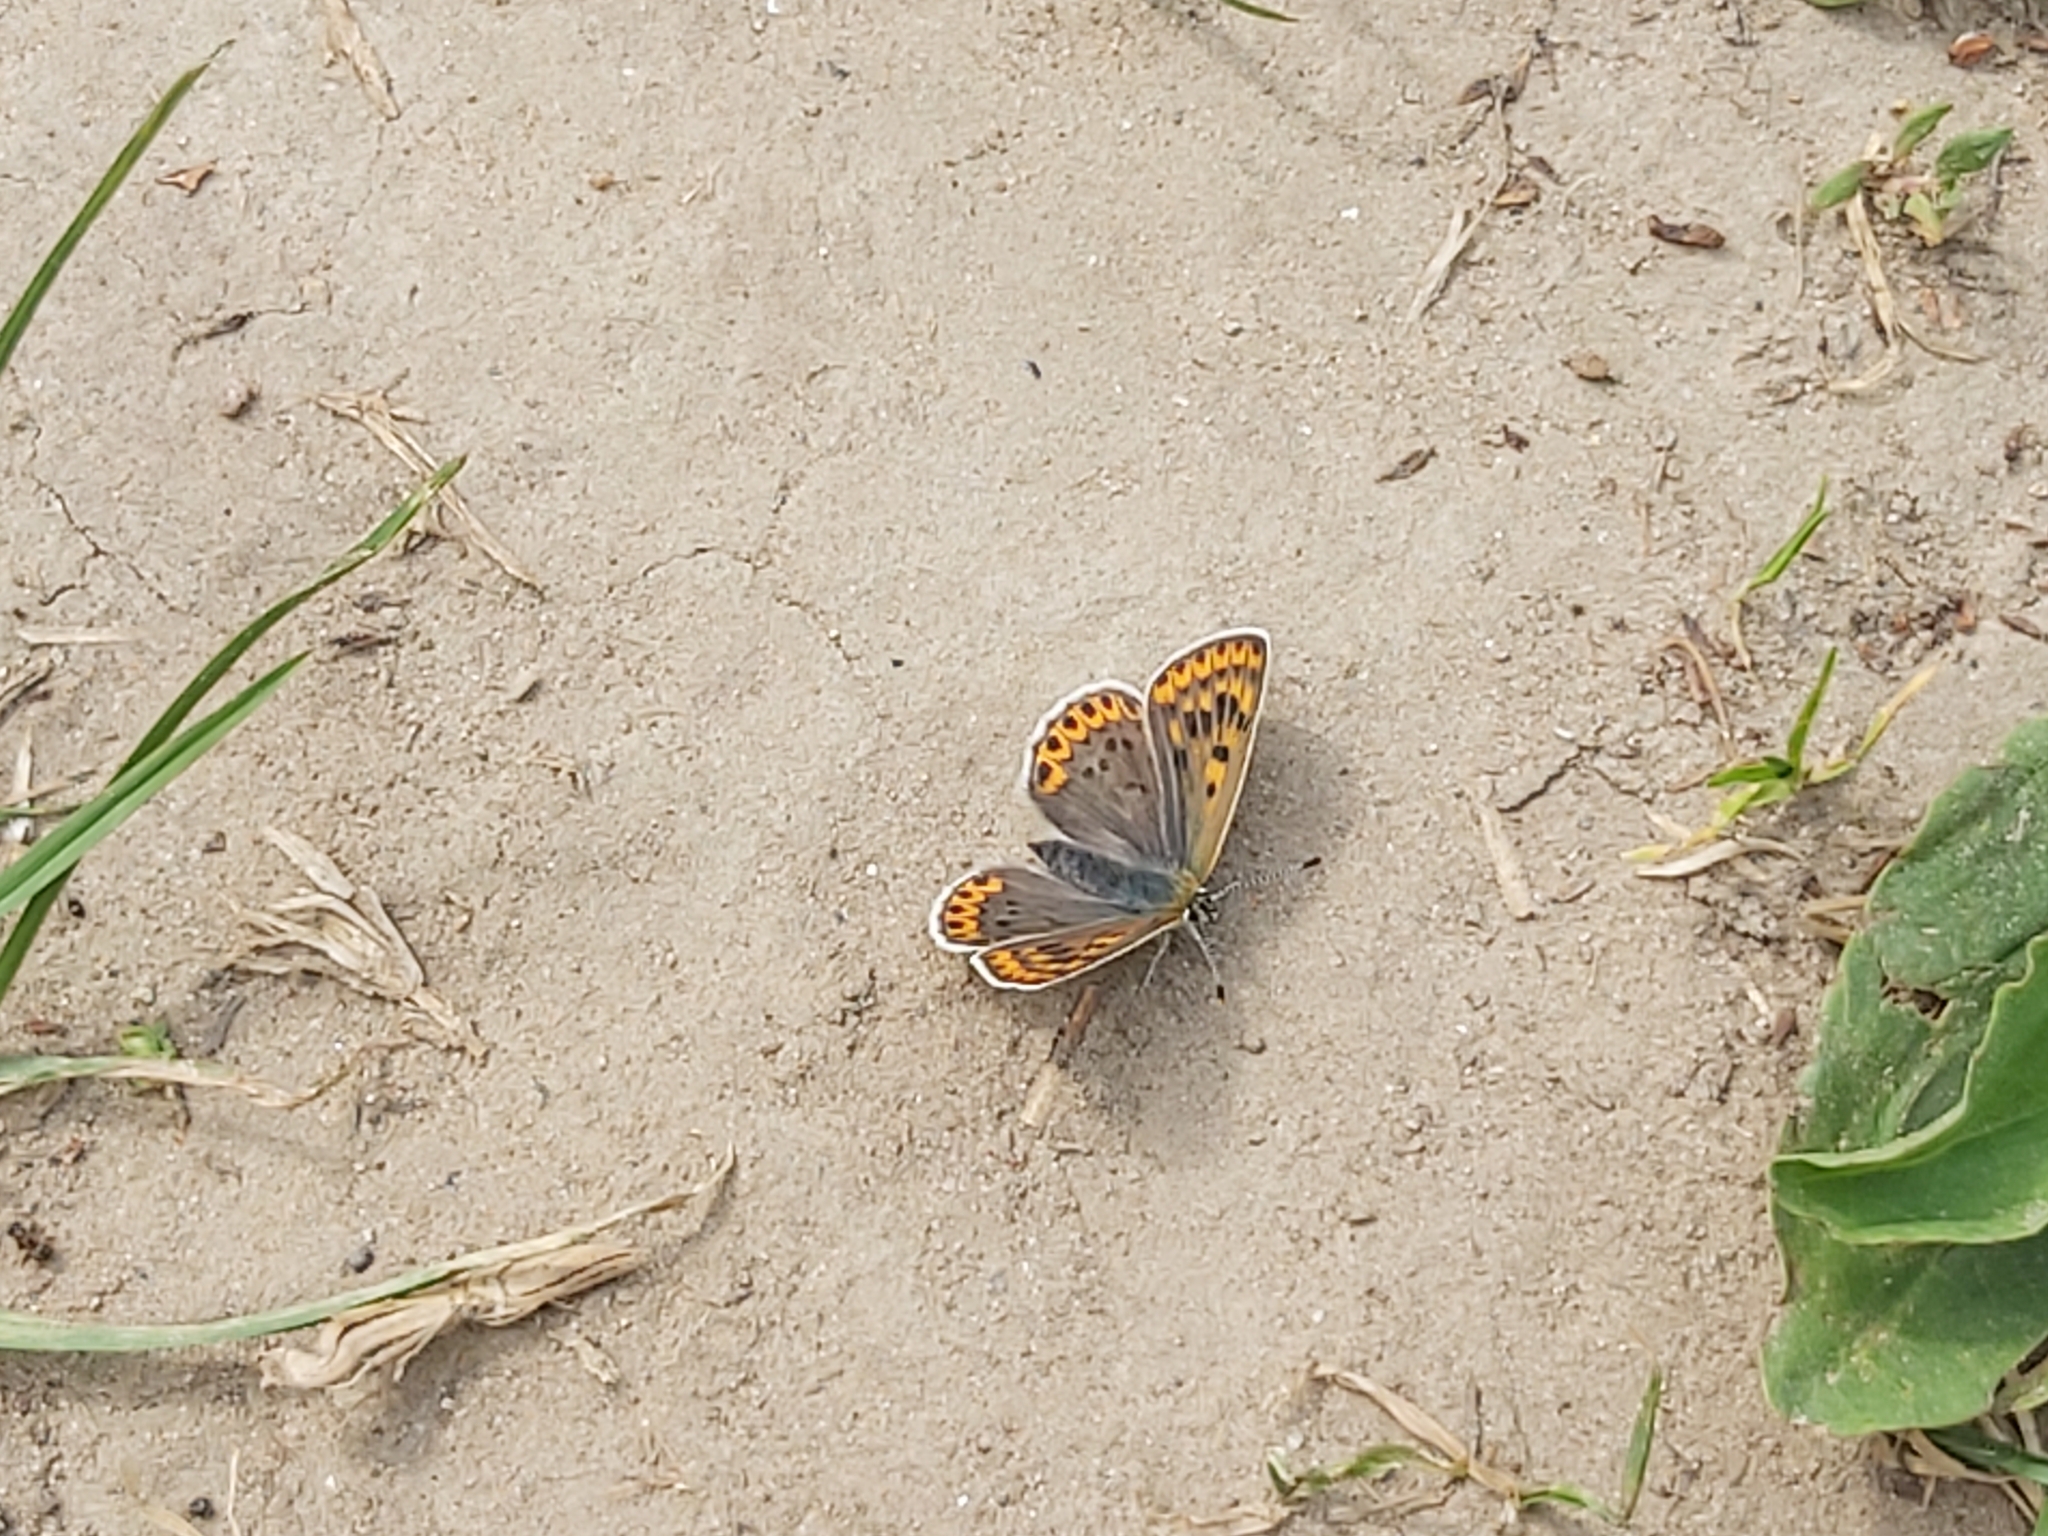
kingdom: Animalia
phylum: Arthropoda
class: Insecta
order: Lepidoptera
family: Lycaenidae
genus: Loweia
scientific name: Loweia tityrus
